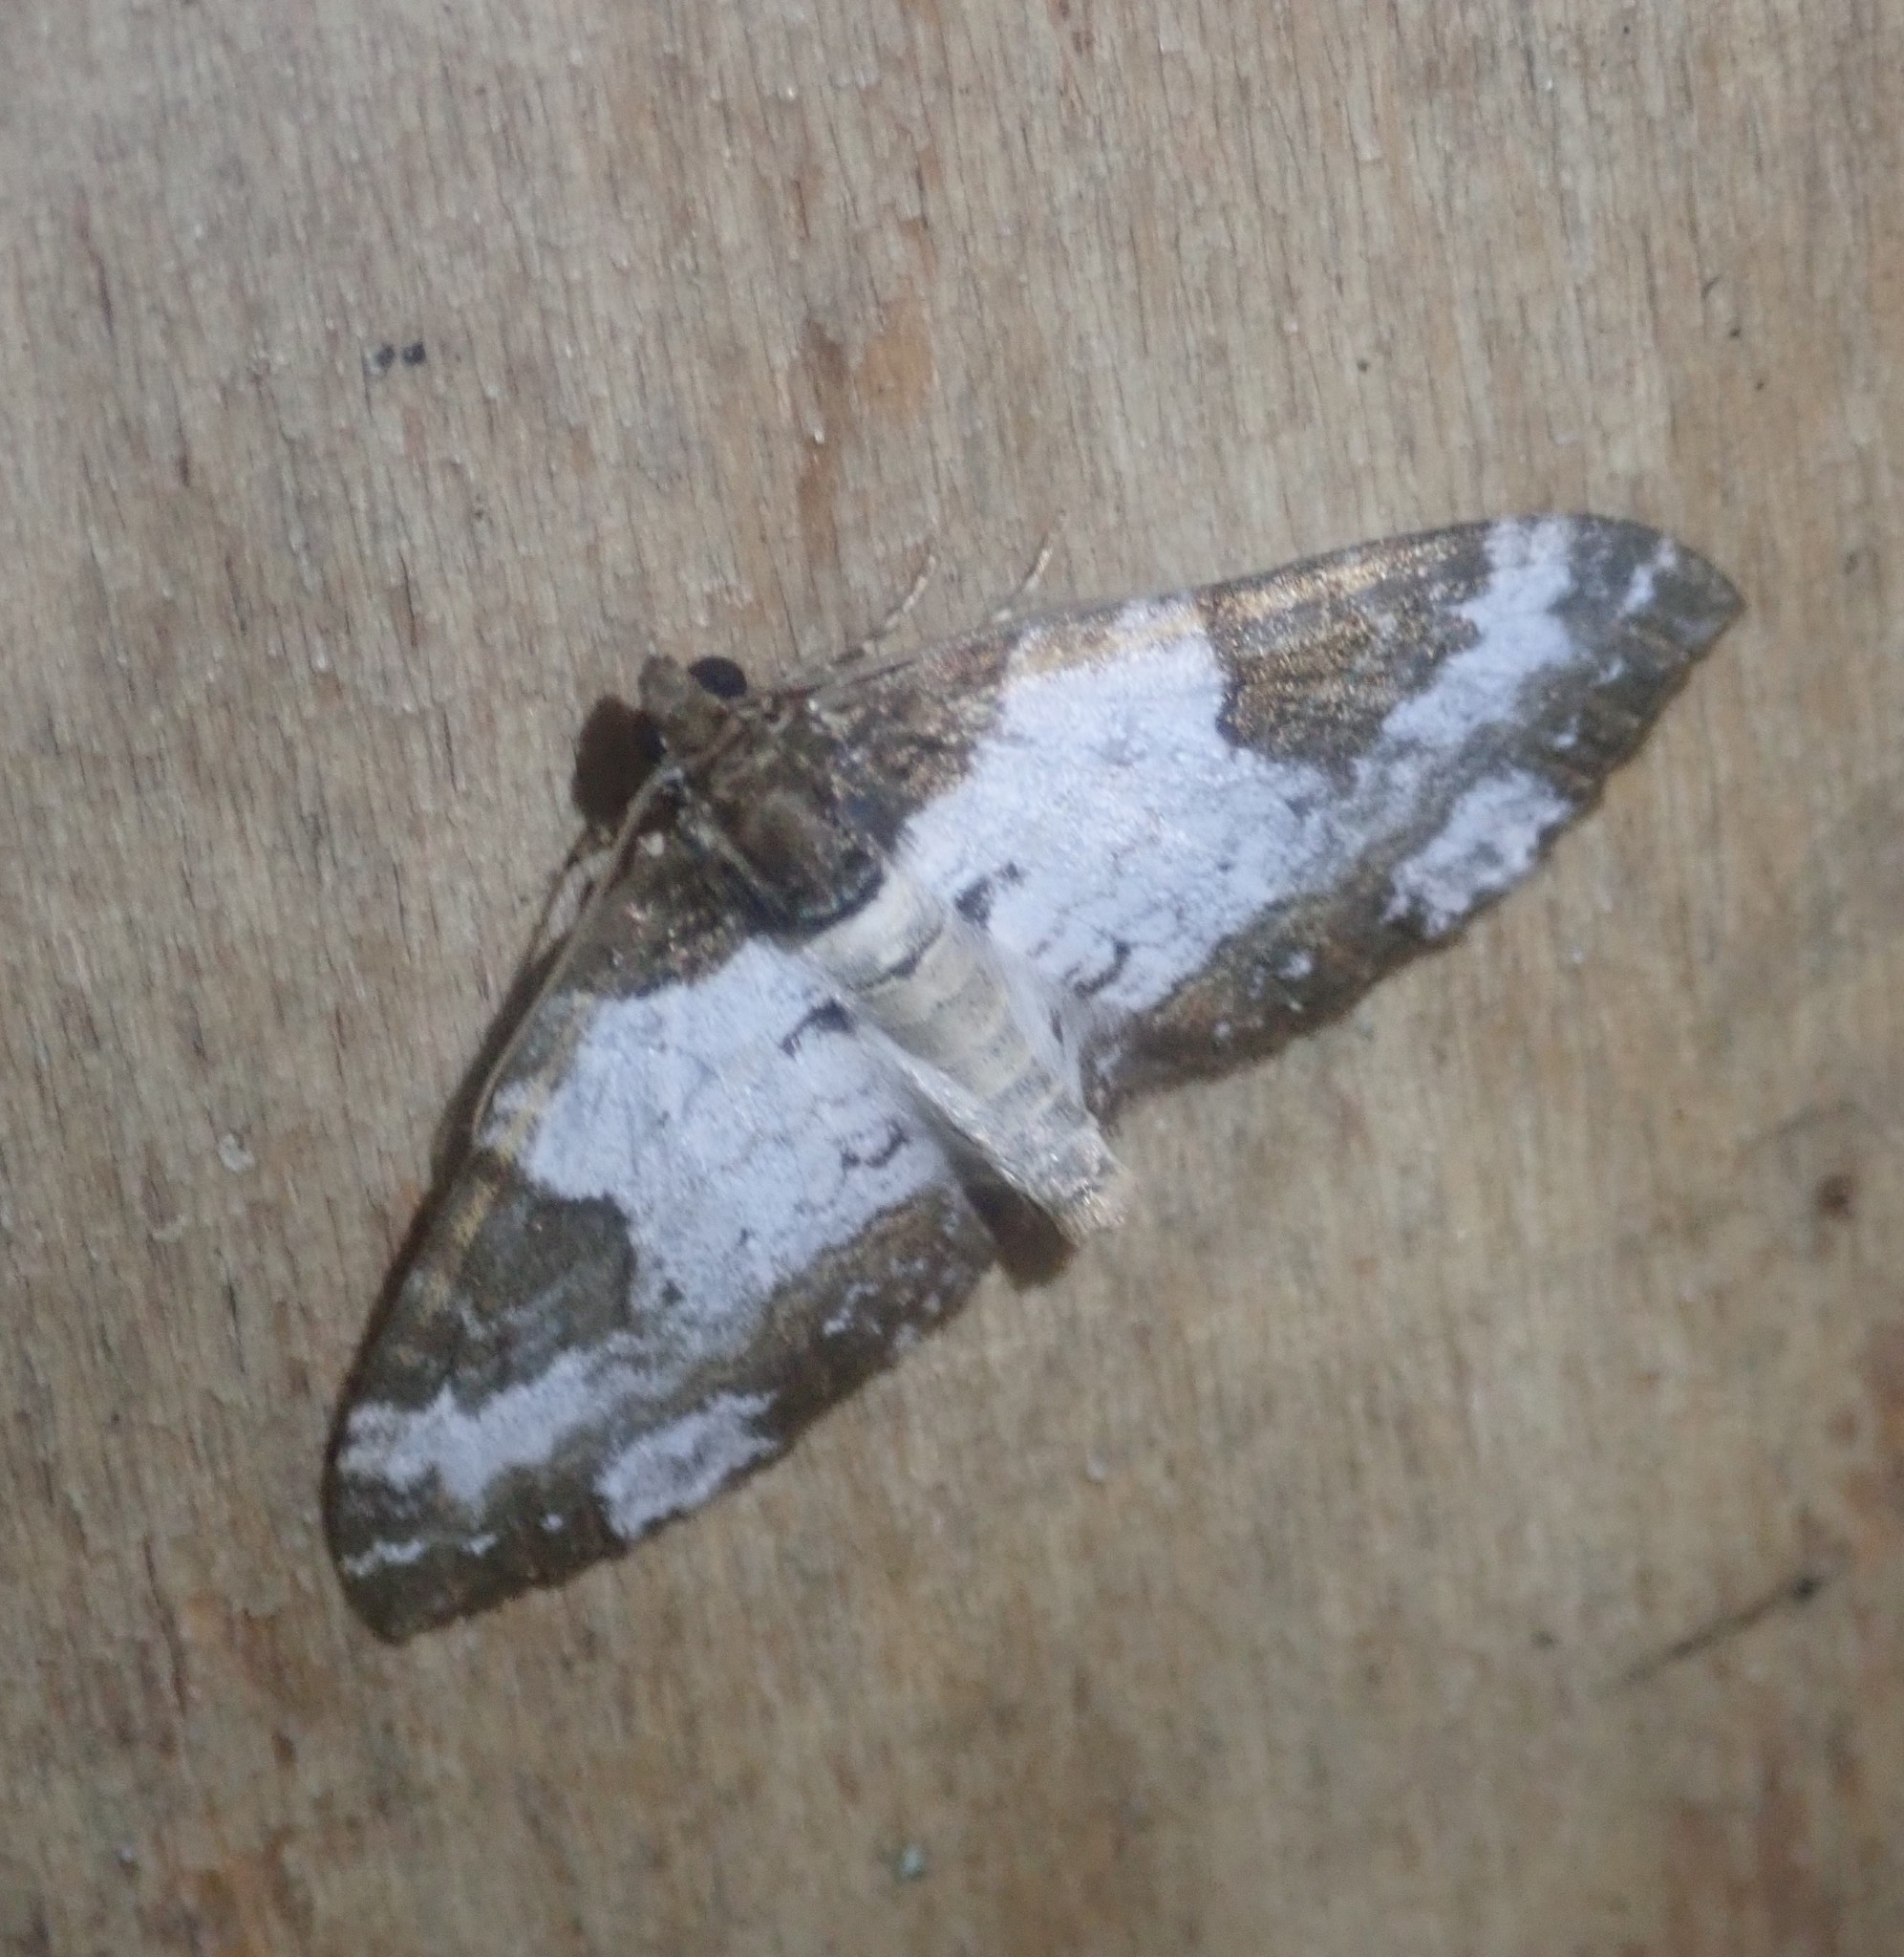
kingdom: Animalia
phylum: Arthropoda
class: Insecta
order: Lepidoptera
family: Geometridae
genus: Melanthia
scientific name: Melanthia procellata
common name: Pretty chalk carpet
